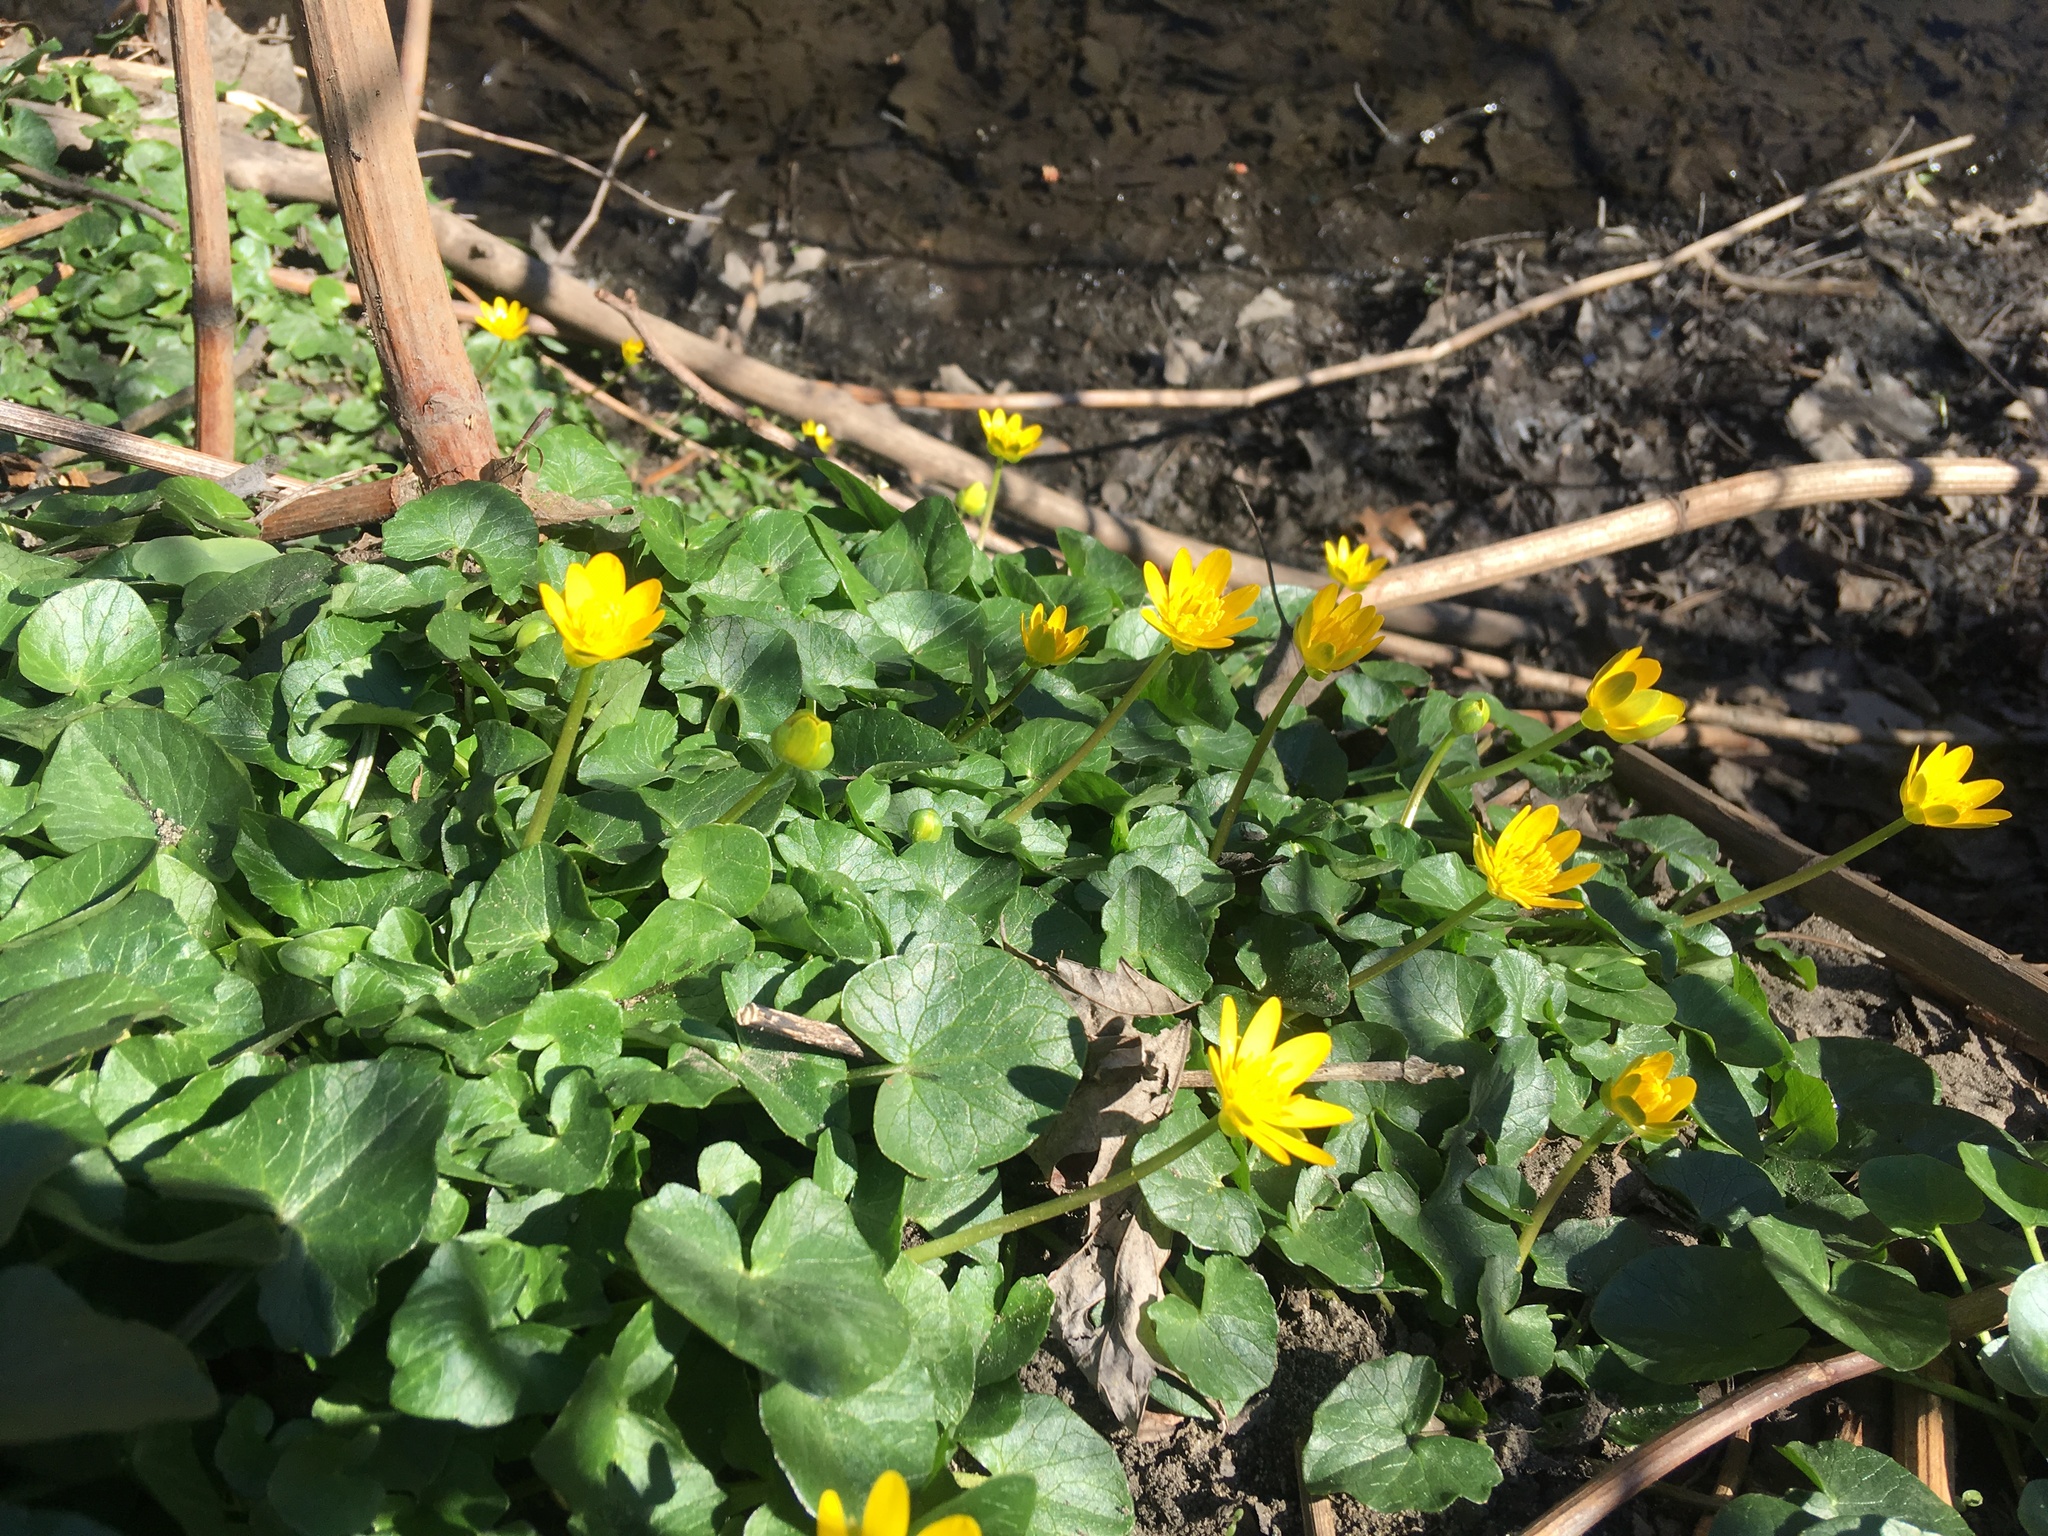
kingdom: Plantae
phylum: Tracheophyta
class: Magnoliopsida
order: Ranunculales
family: Ranunculaceae
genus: Ficaria
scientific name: Ficaria verna
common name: Lesser celandine
